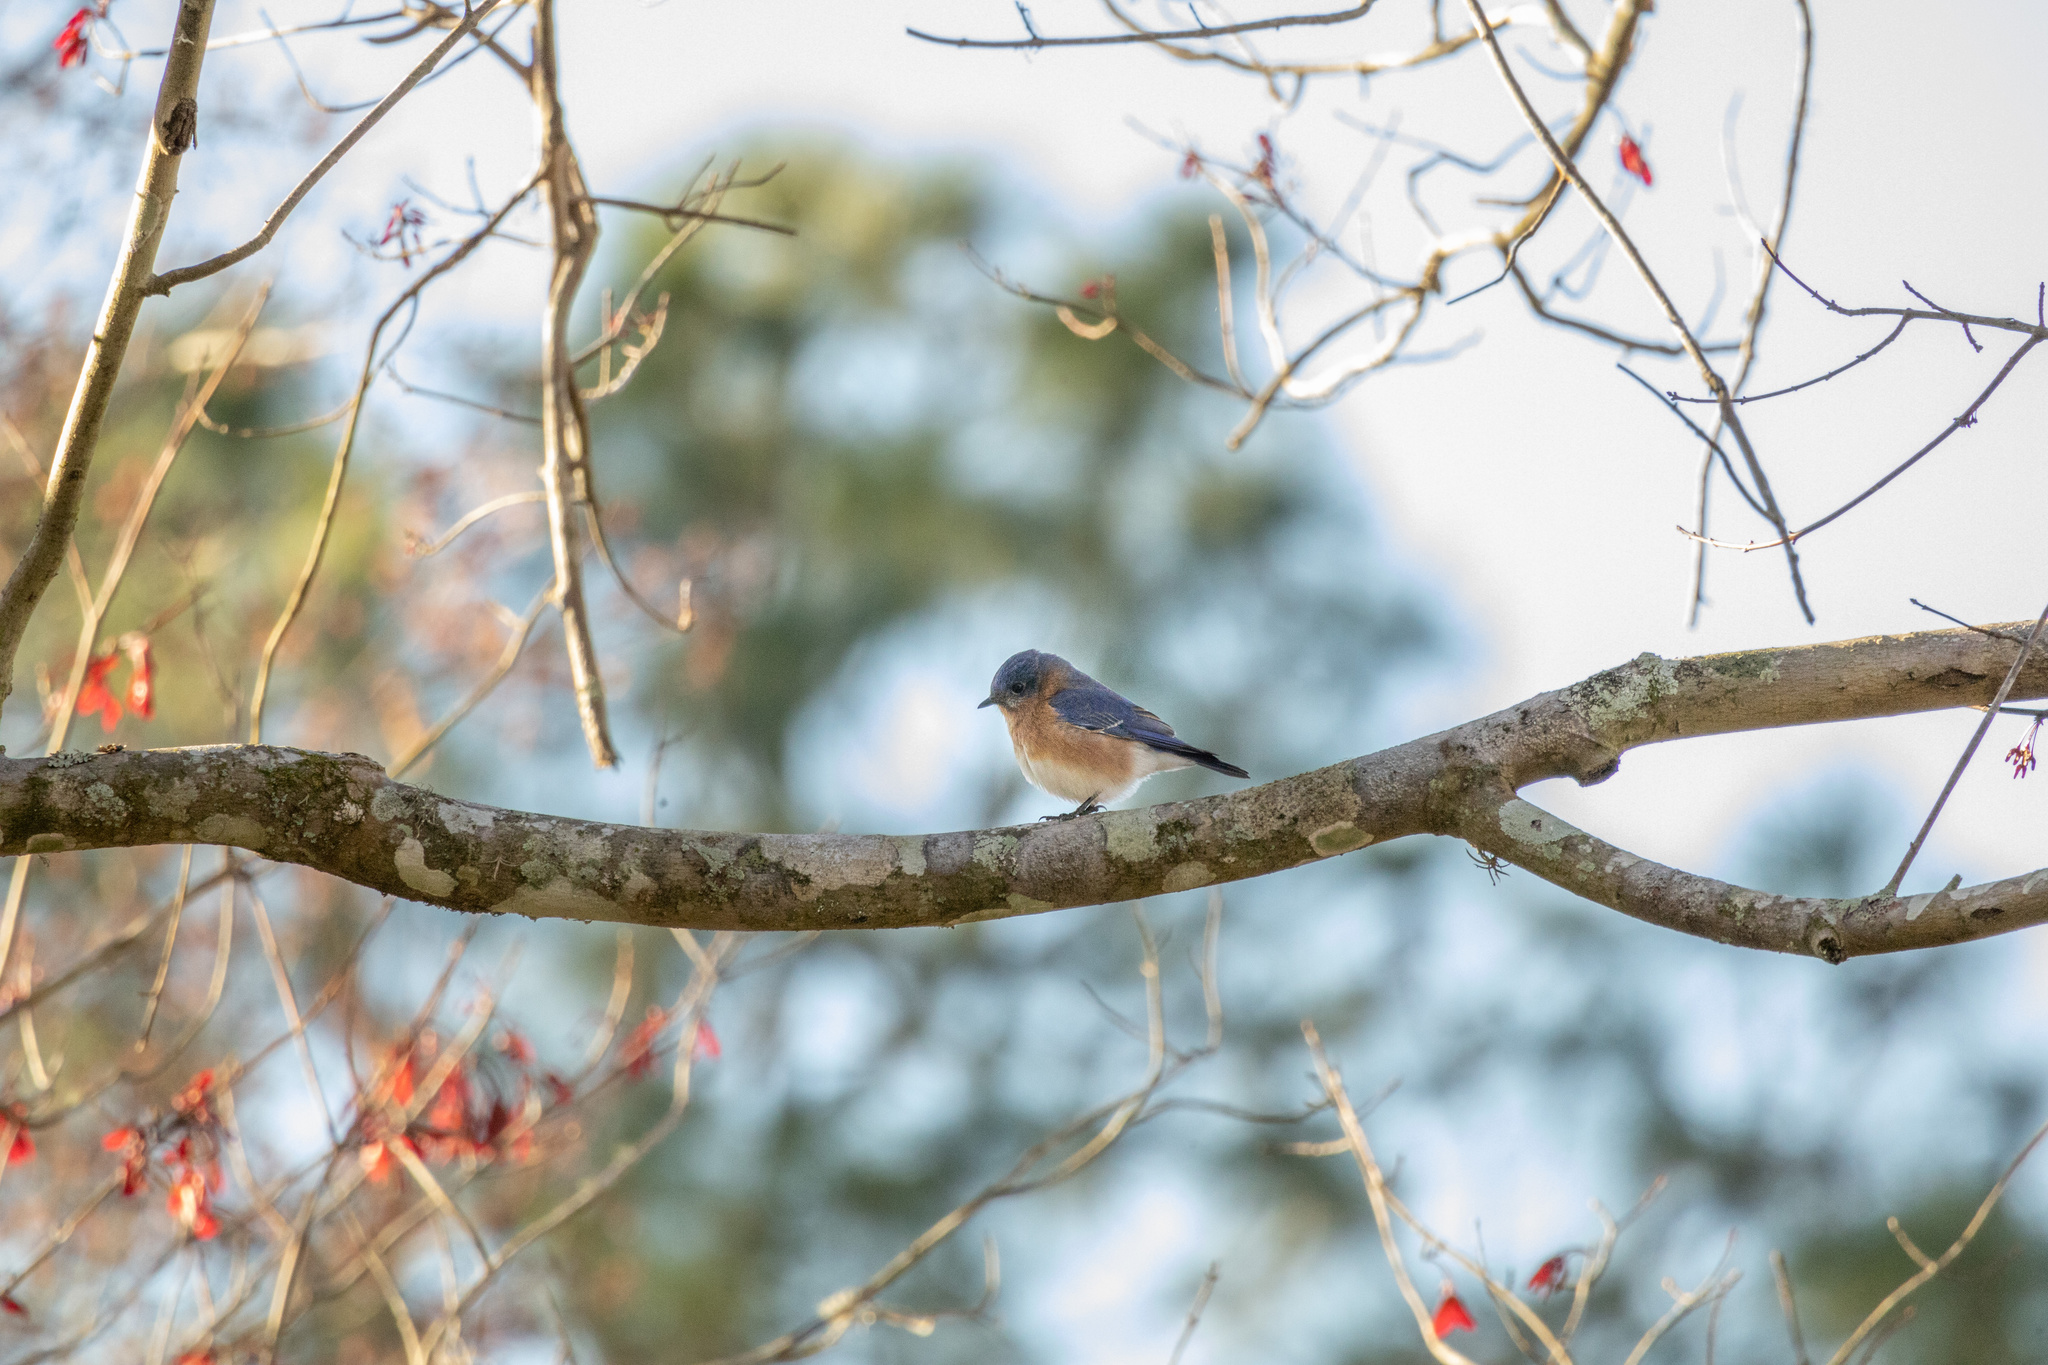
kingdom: Animalia
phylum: Chordata
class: Aves
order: Passeriformes
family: Turdidae
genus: Sialia
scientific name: Sialia sialis
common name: Eastern bluebird
